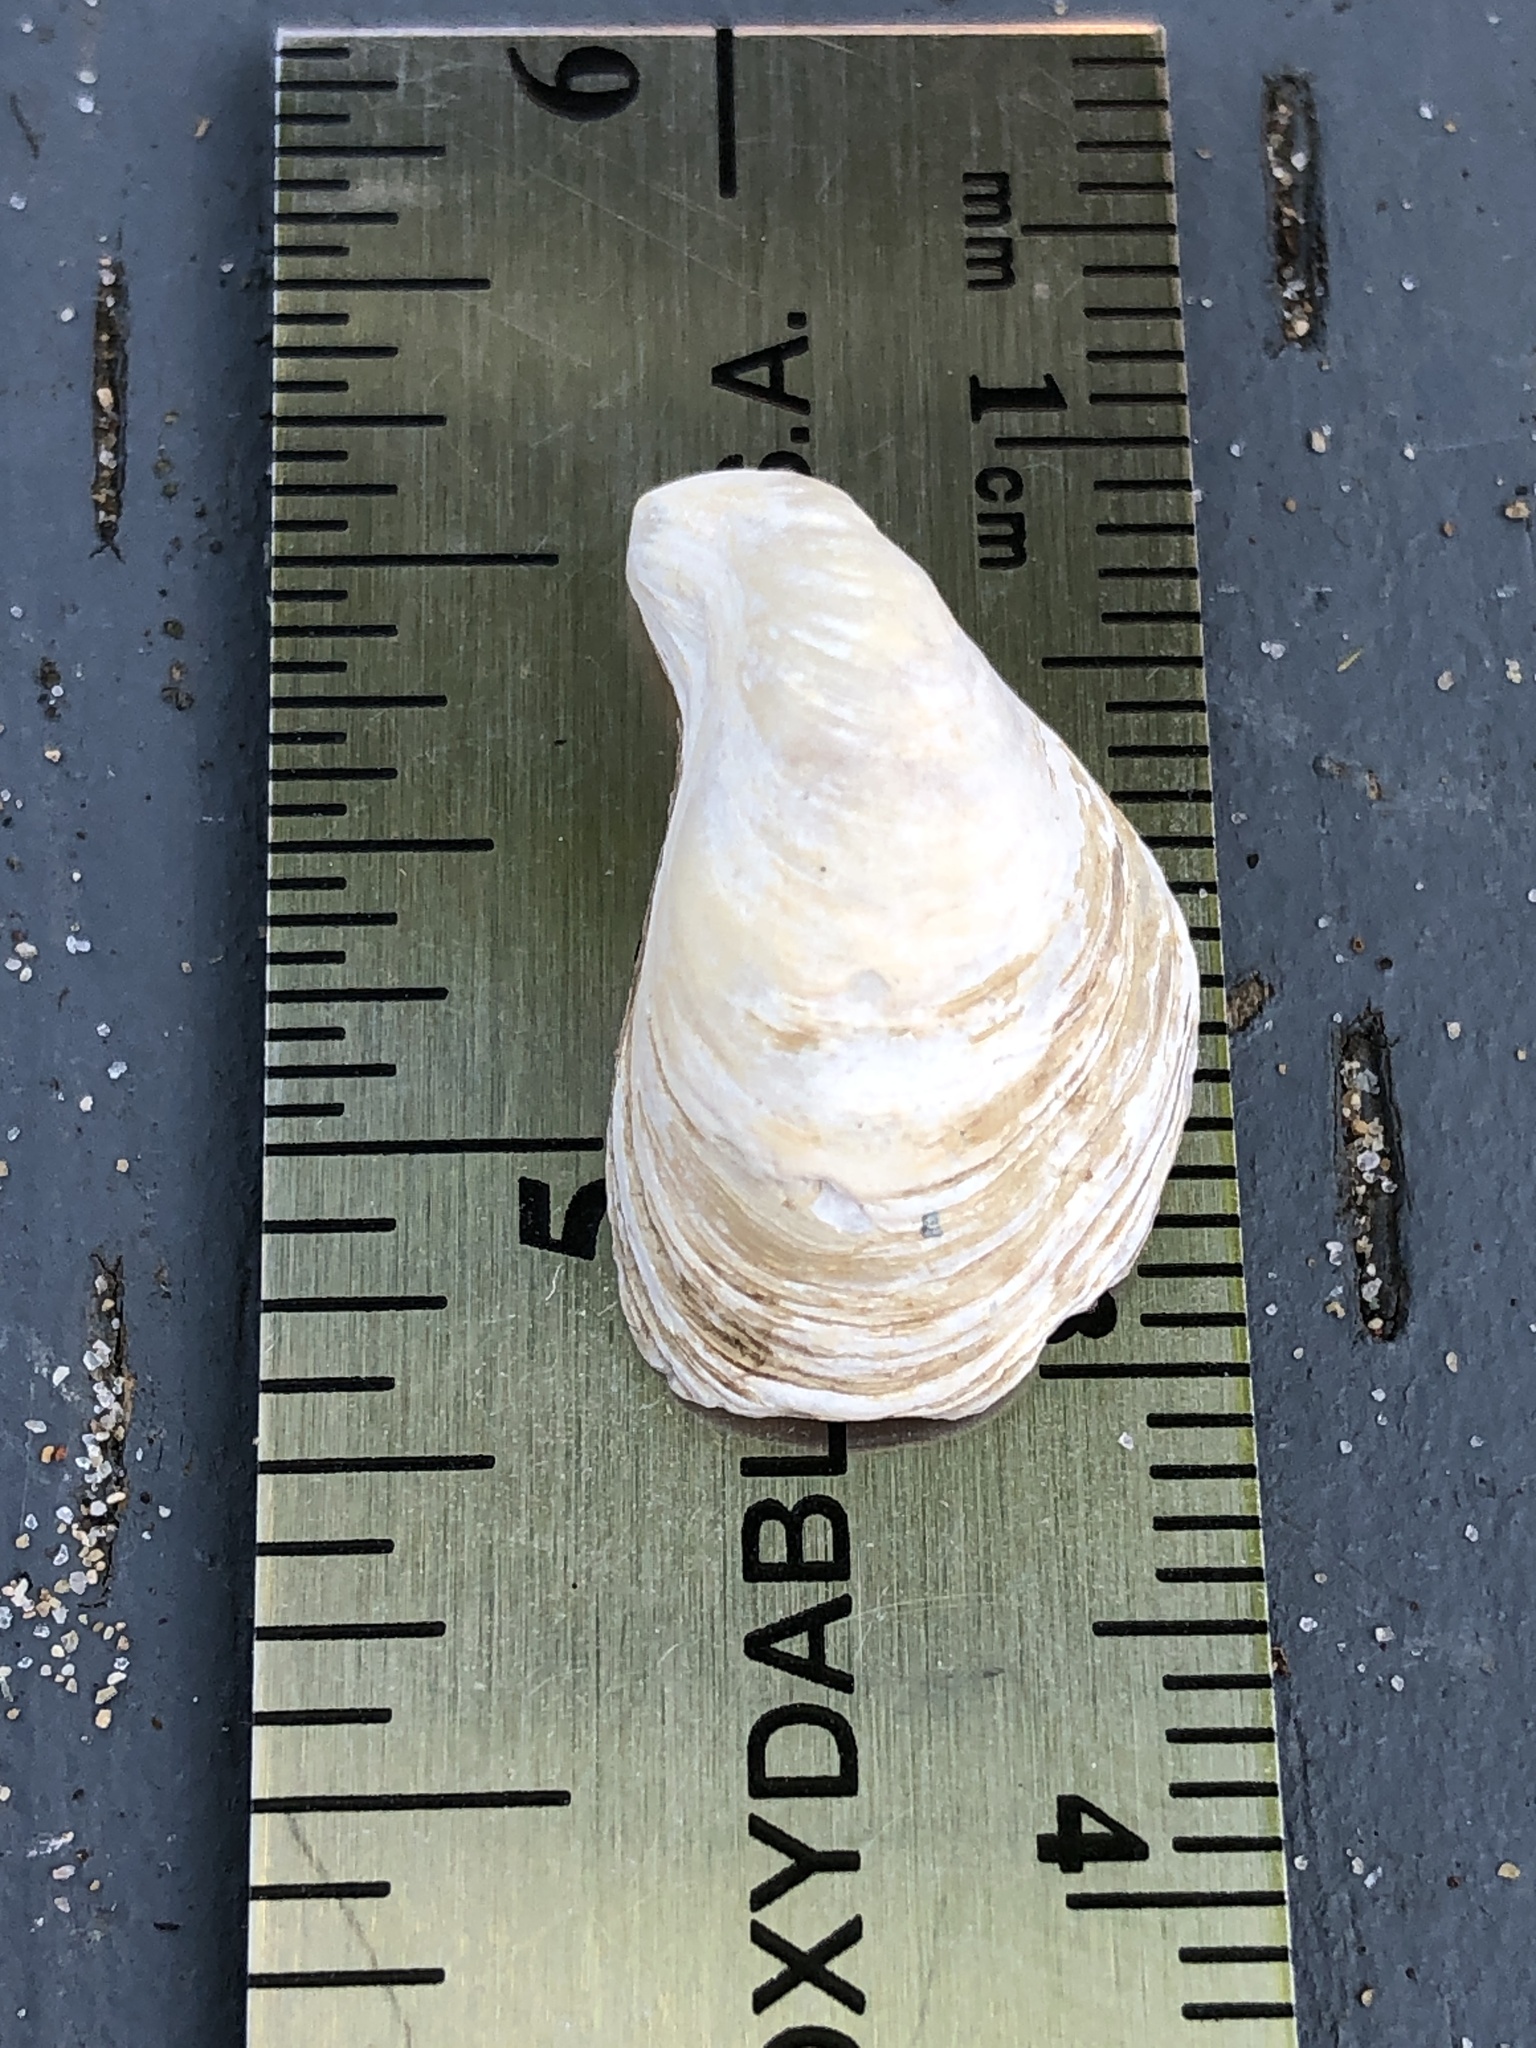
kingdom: Animalia
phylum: Mollusca
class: Bivalvia
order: Myida
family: Dreissenidae
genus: Dreissena
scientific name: Dreissena bugensis
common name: Quagga mussel
